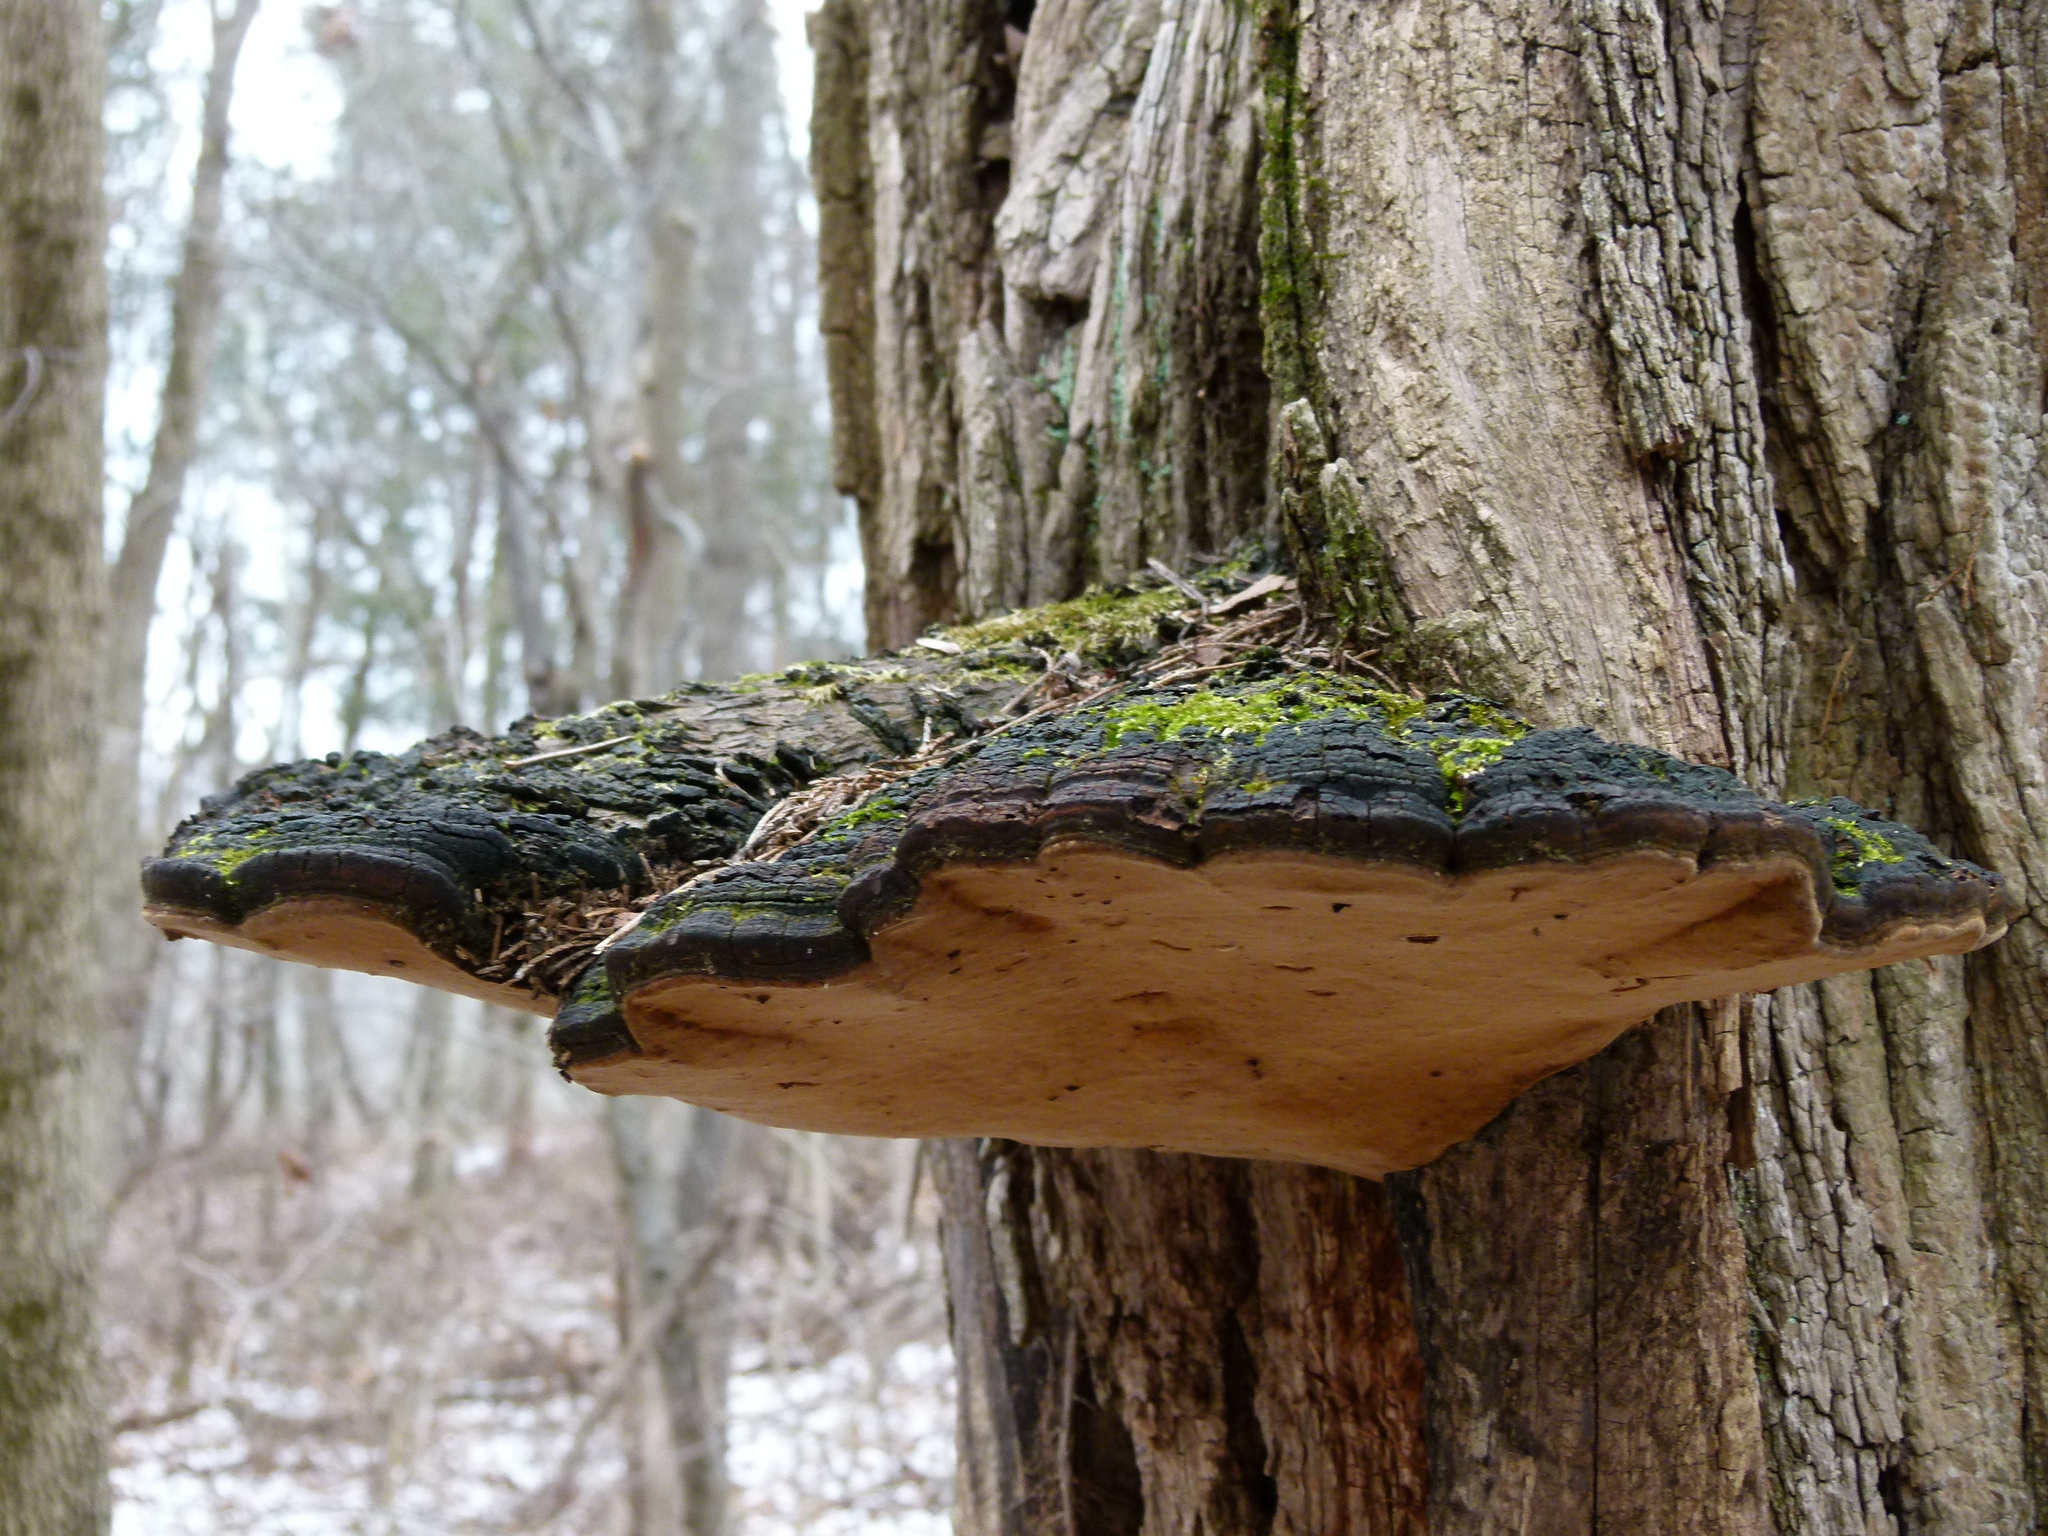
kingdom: Fungi
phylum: Basidiomycota
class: Agaricomycetes
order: Hymenochaetales
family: Hymenochaetaceae
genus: Phellinus
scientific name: Phellinus robiniae
